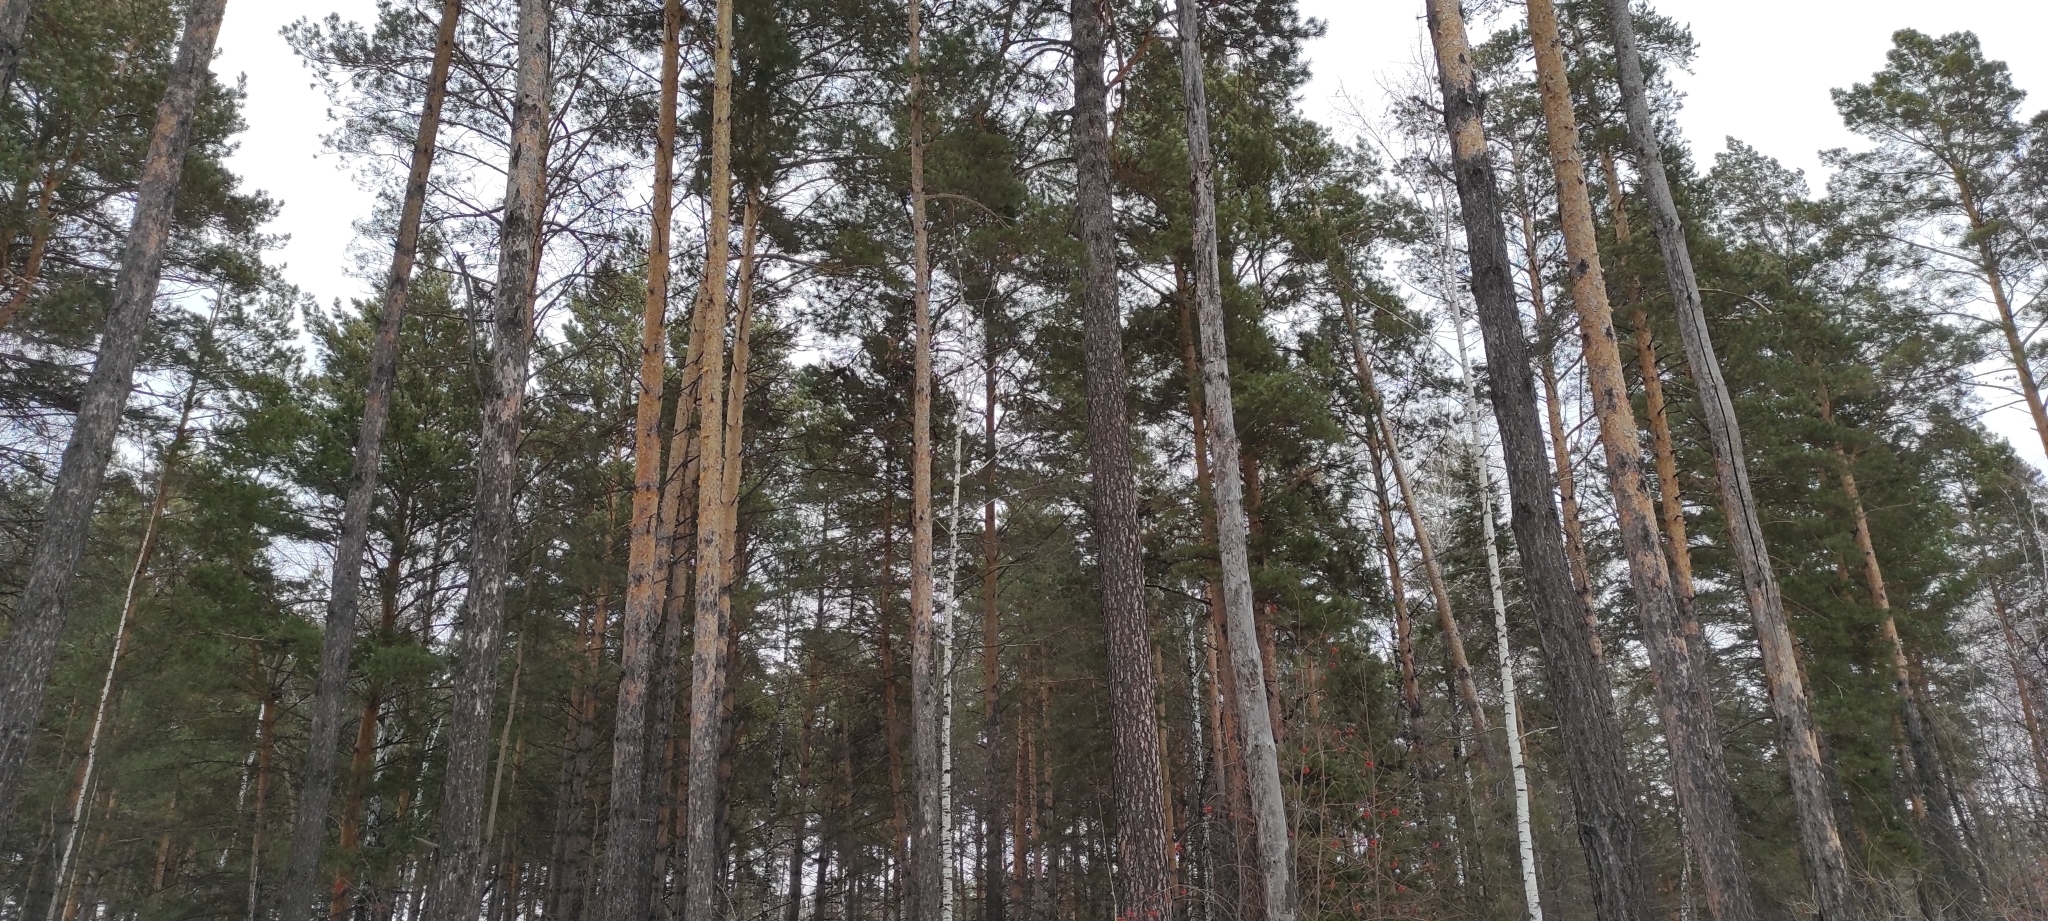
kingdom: Plantae
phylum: Tracheophyta
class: Pinopsida
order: Pinales
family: Pinaceae
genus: Pinus
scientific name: Pinus sylvestris
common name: Scots pine
